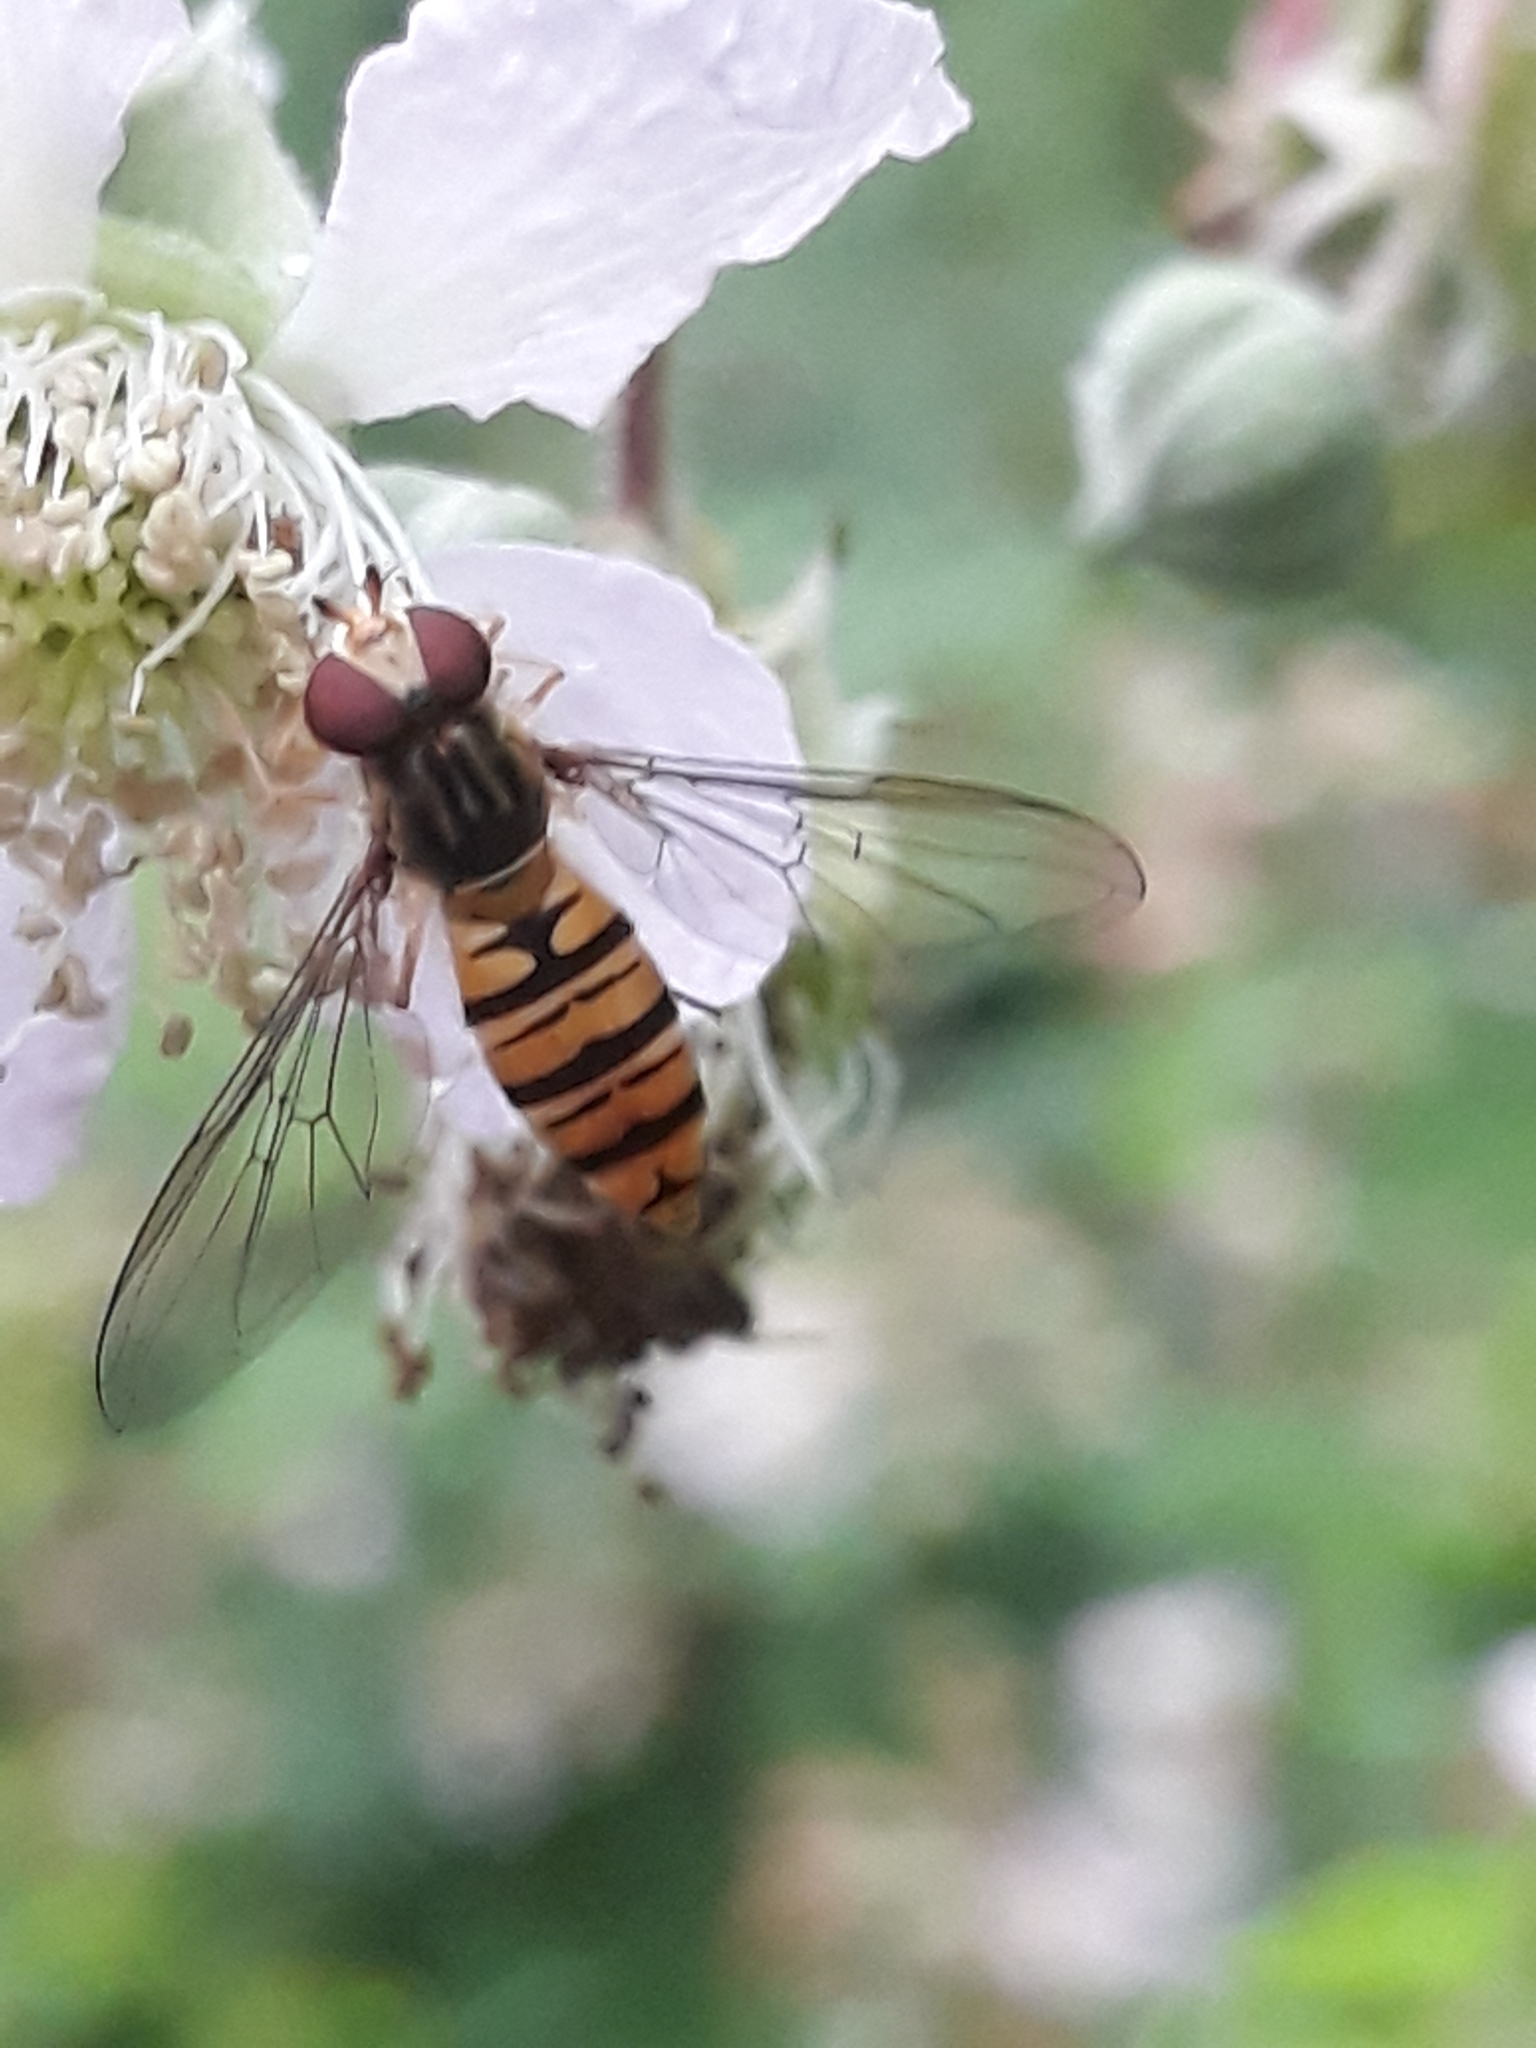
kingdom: Animalia
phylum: Arthropoda
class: Insecta
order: Diptera
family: Syrphidae
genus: Episyrphus
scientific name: Episyrphus balteatus
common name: Marmalade hoverfly
